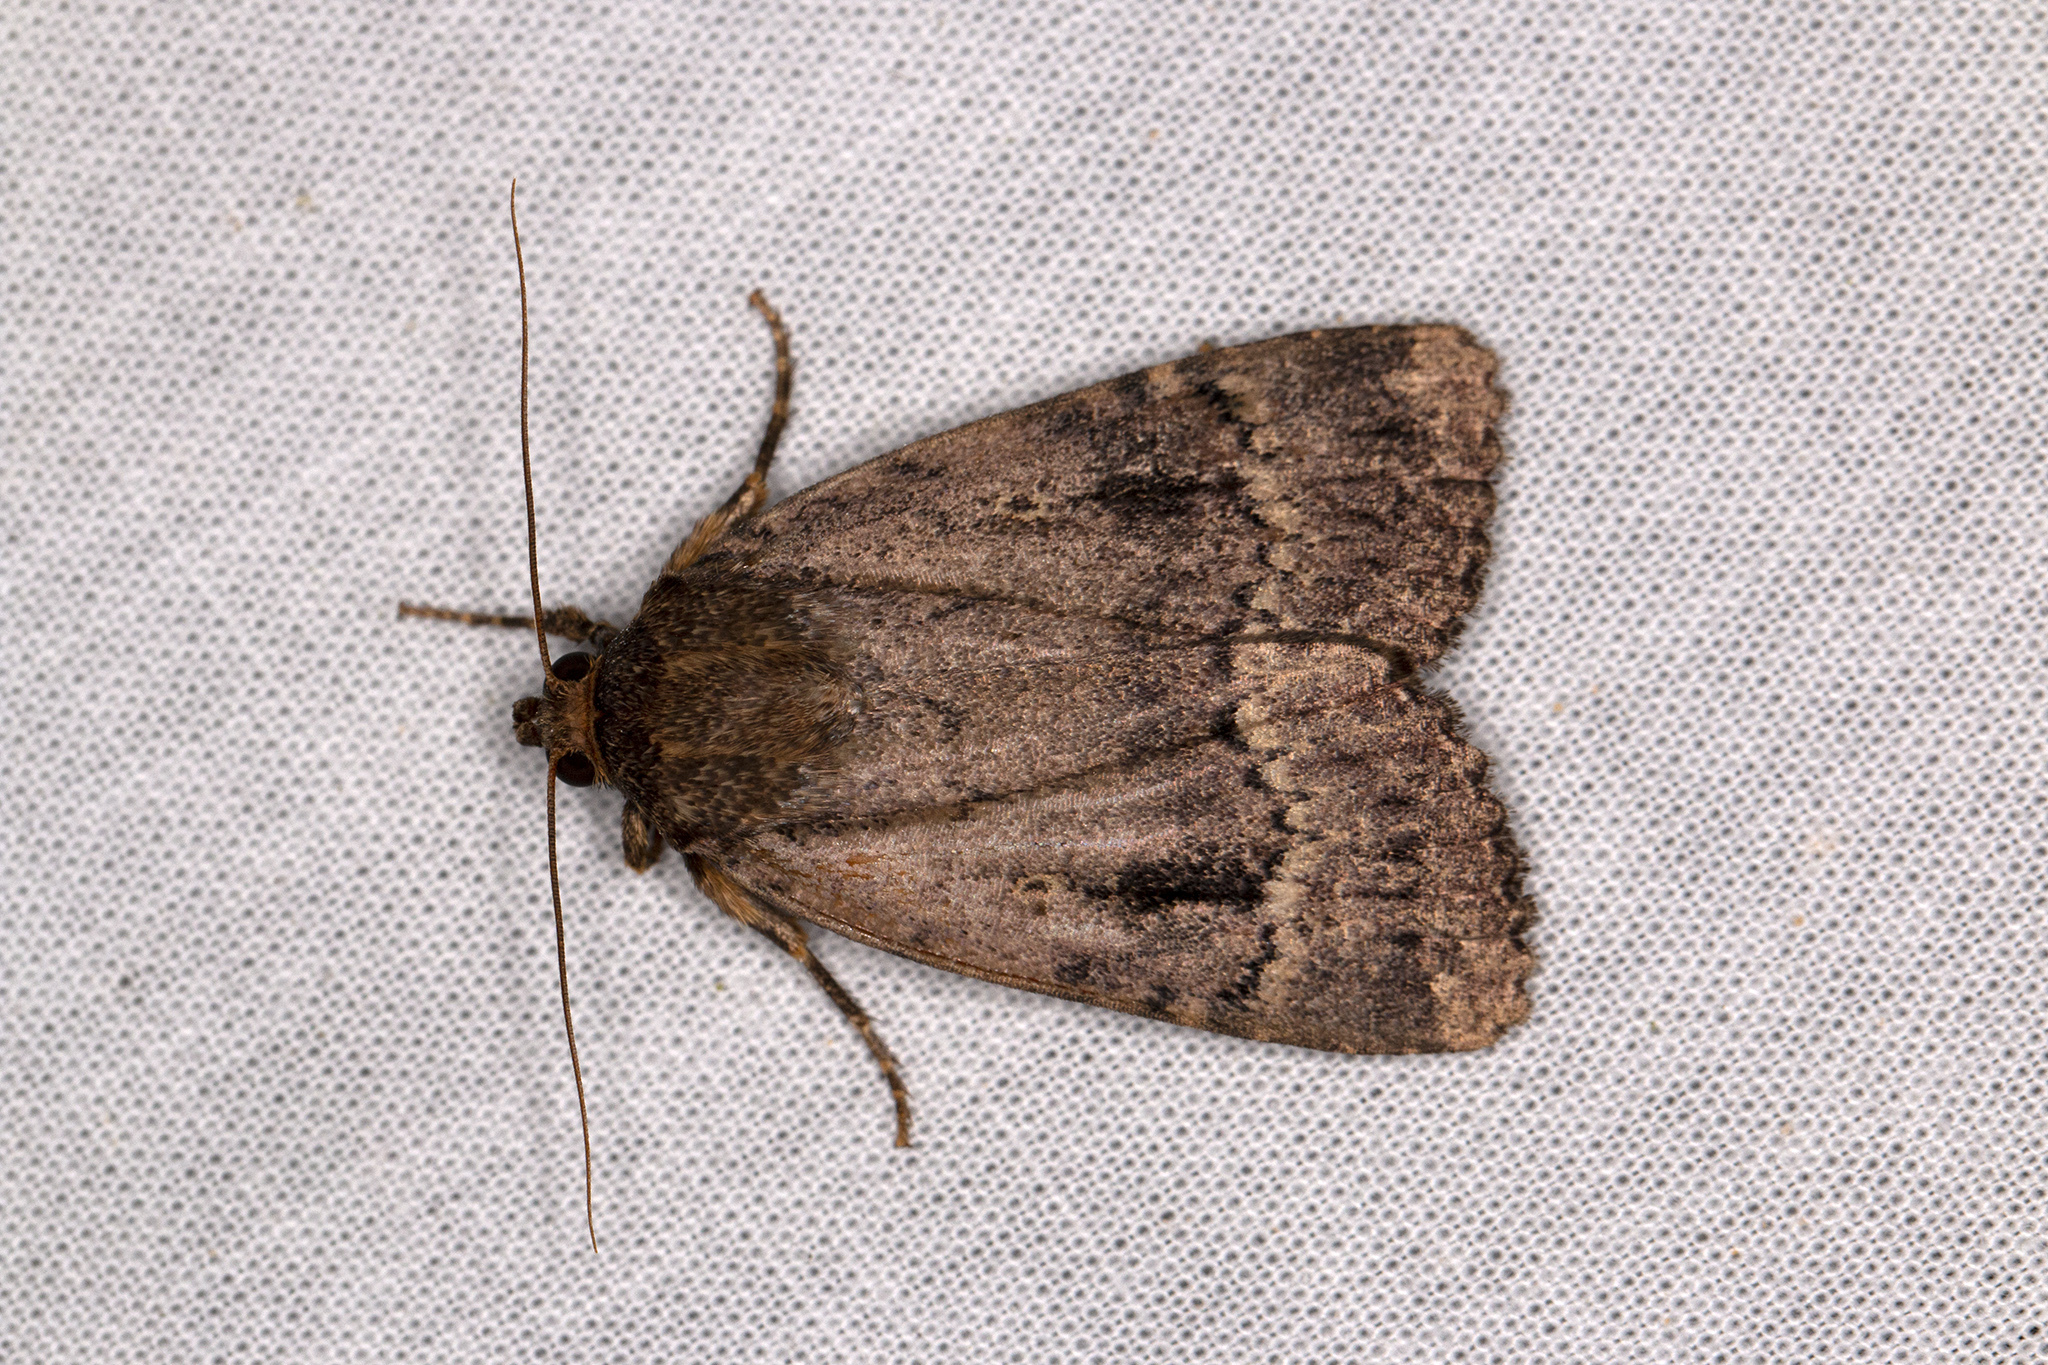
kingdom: Animalia
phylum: Arthropoda
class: Insecta
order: Lepidoptera
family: Noctuidae
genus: Amphipyra
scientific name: Amphipyra pyramidea
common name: Copper underwing
